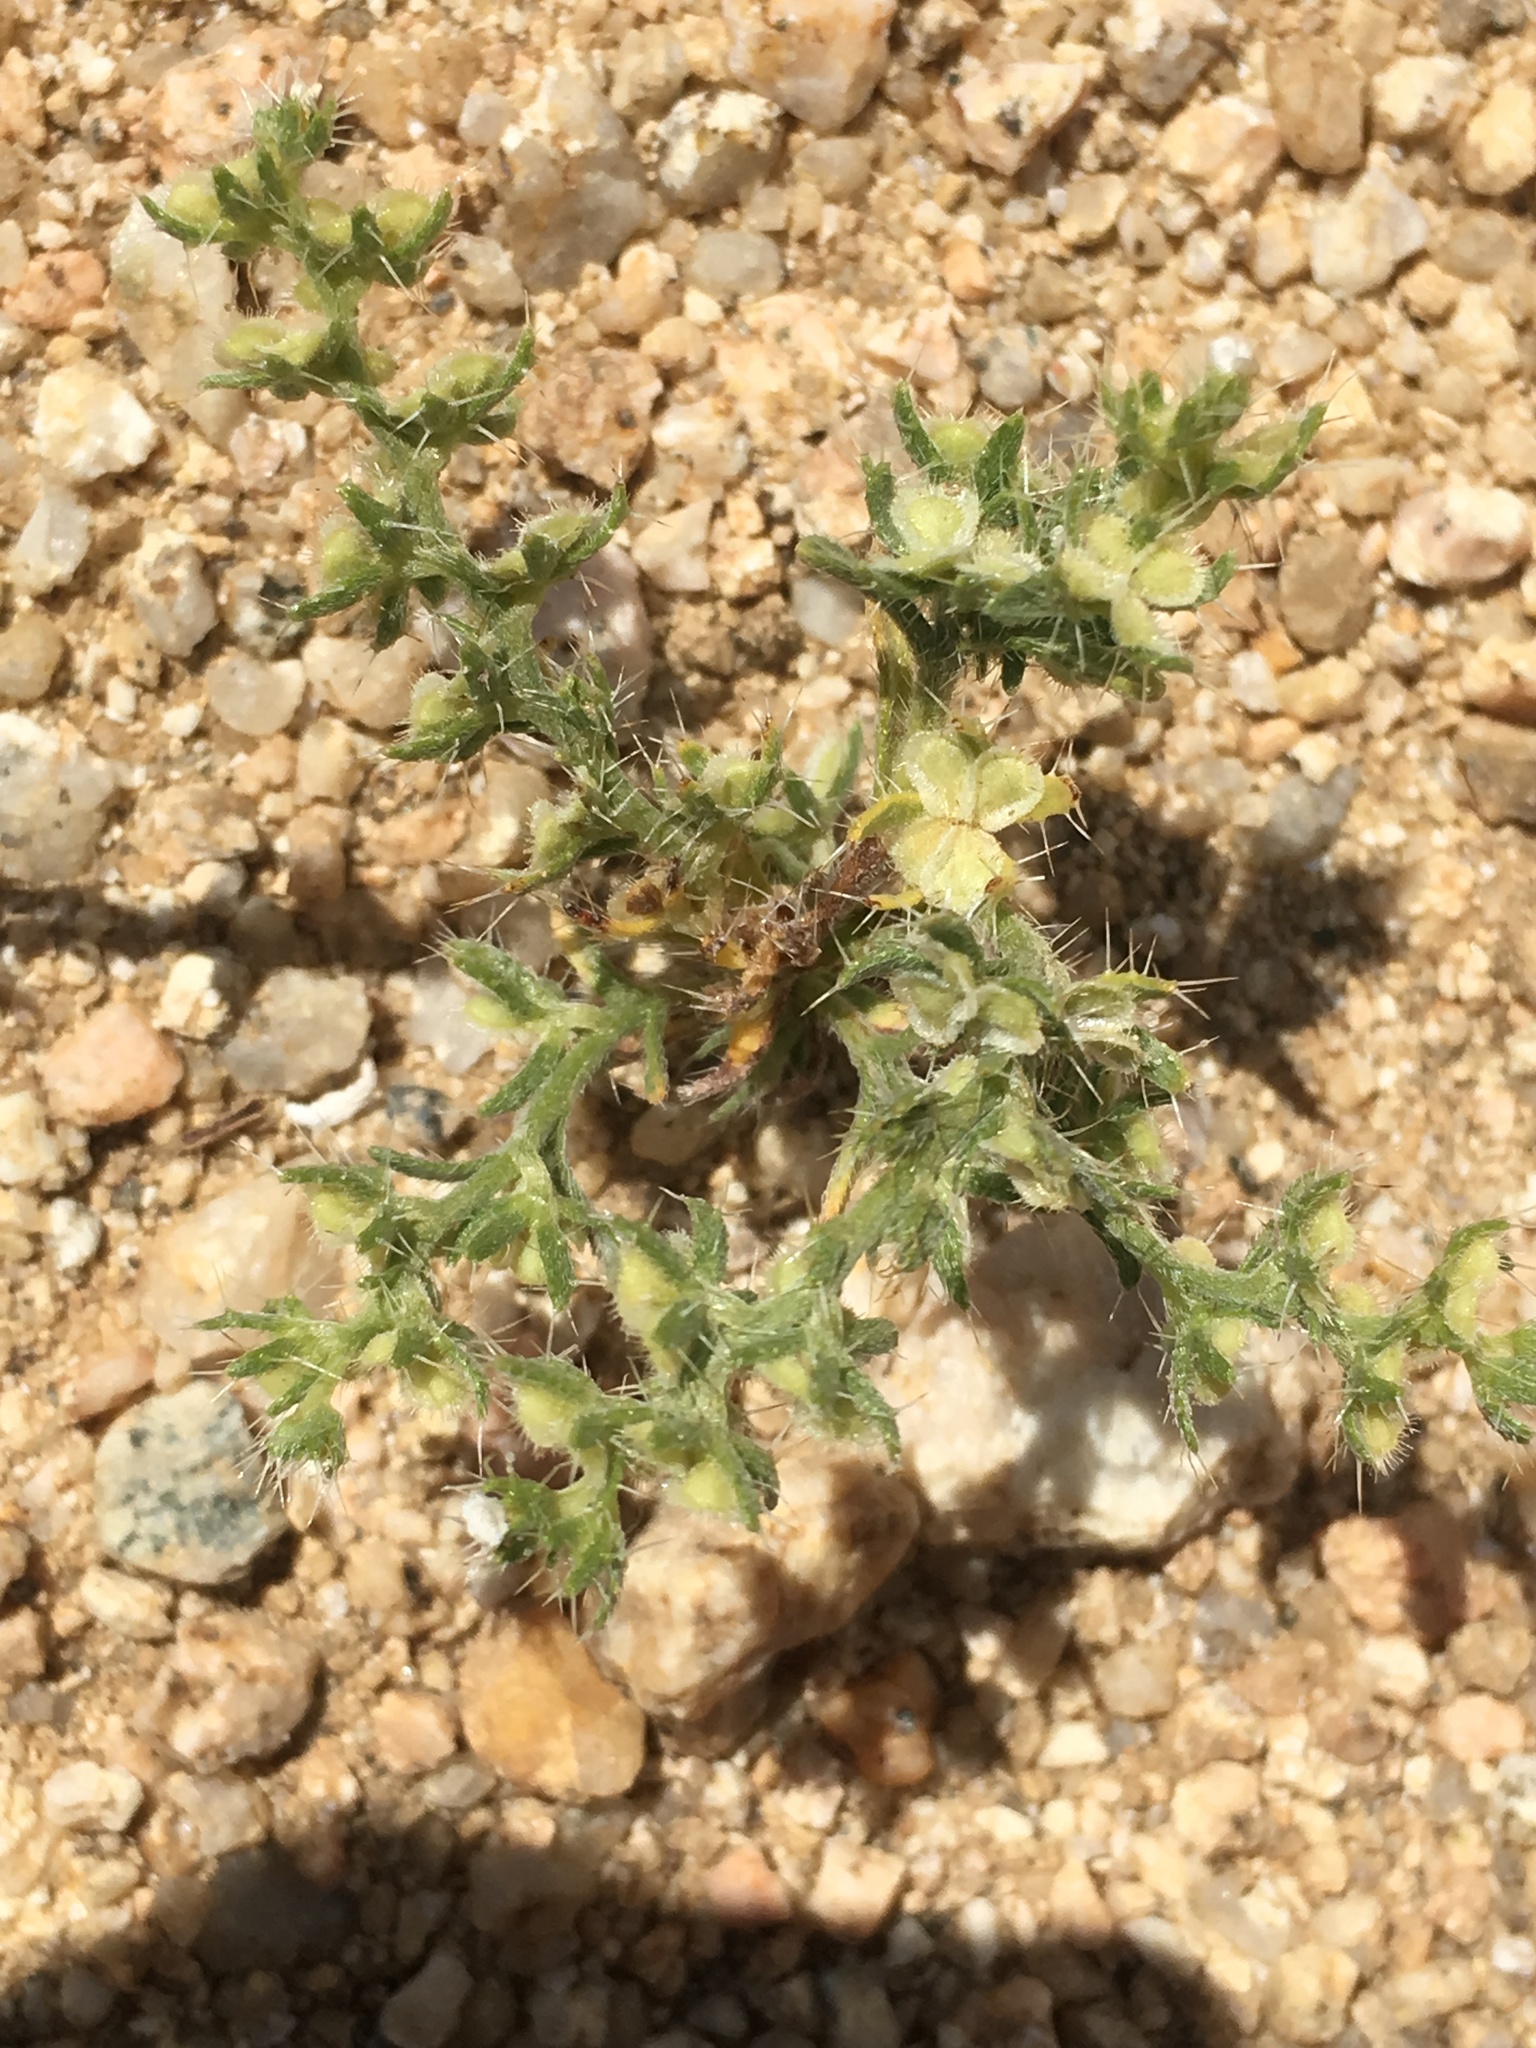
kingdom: Plantae
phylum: Tracheophyta
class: Magnoliopsida
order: Boraginales
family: Boraginaceae
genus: Pectocarya
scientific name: Pectocarya setosa
